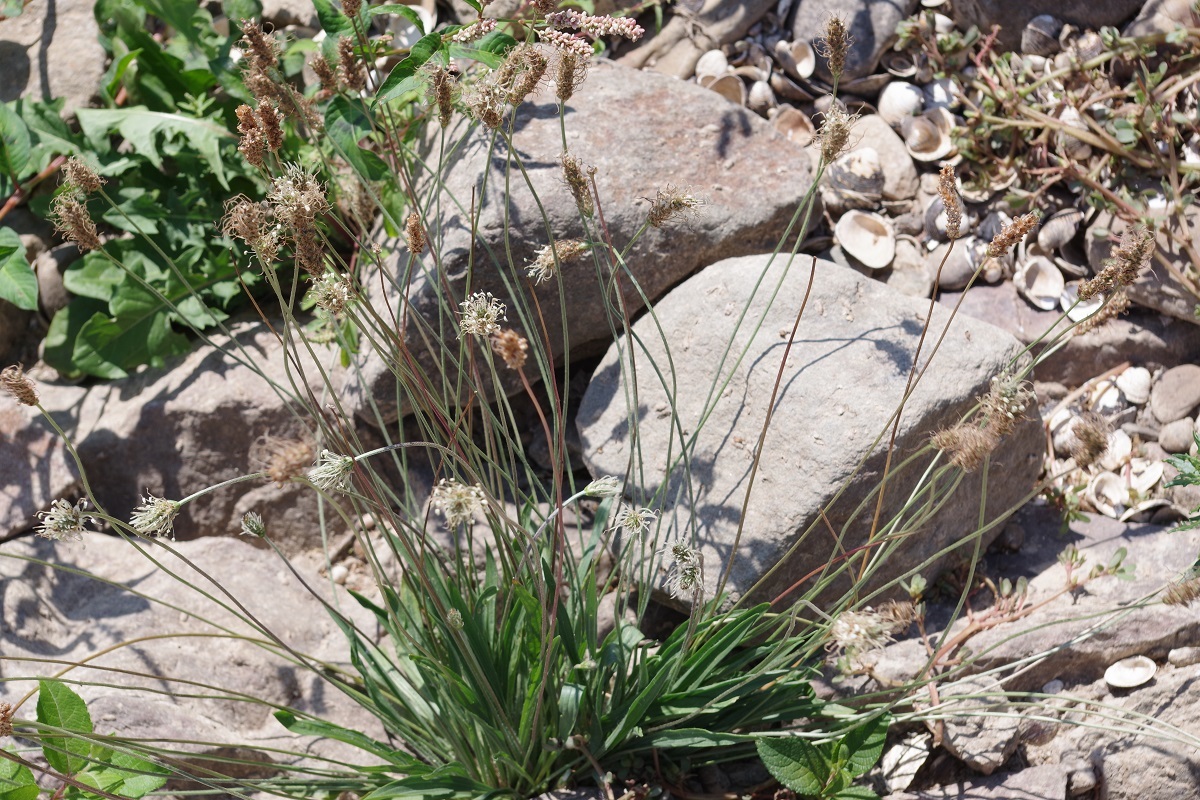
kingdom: Plantae
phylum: Tracheophyta
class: Magnoliopsida
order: Lamiales
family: Plantaginaceae
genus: Plantago
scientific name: Plantago lanceolata
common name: Ribwort plantain
